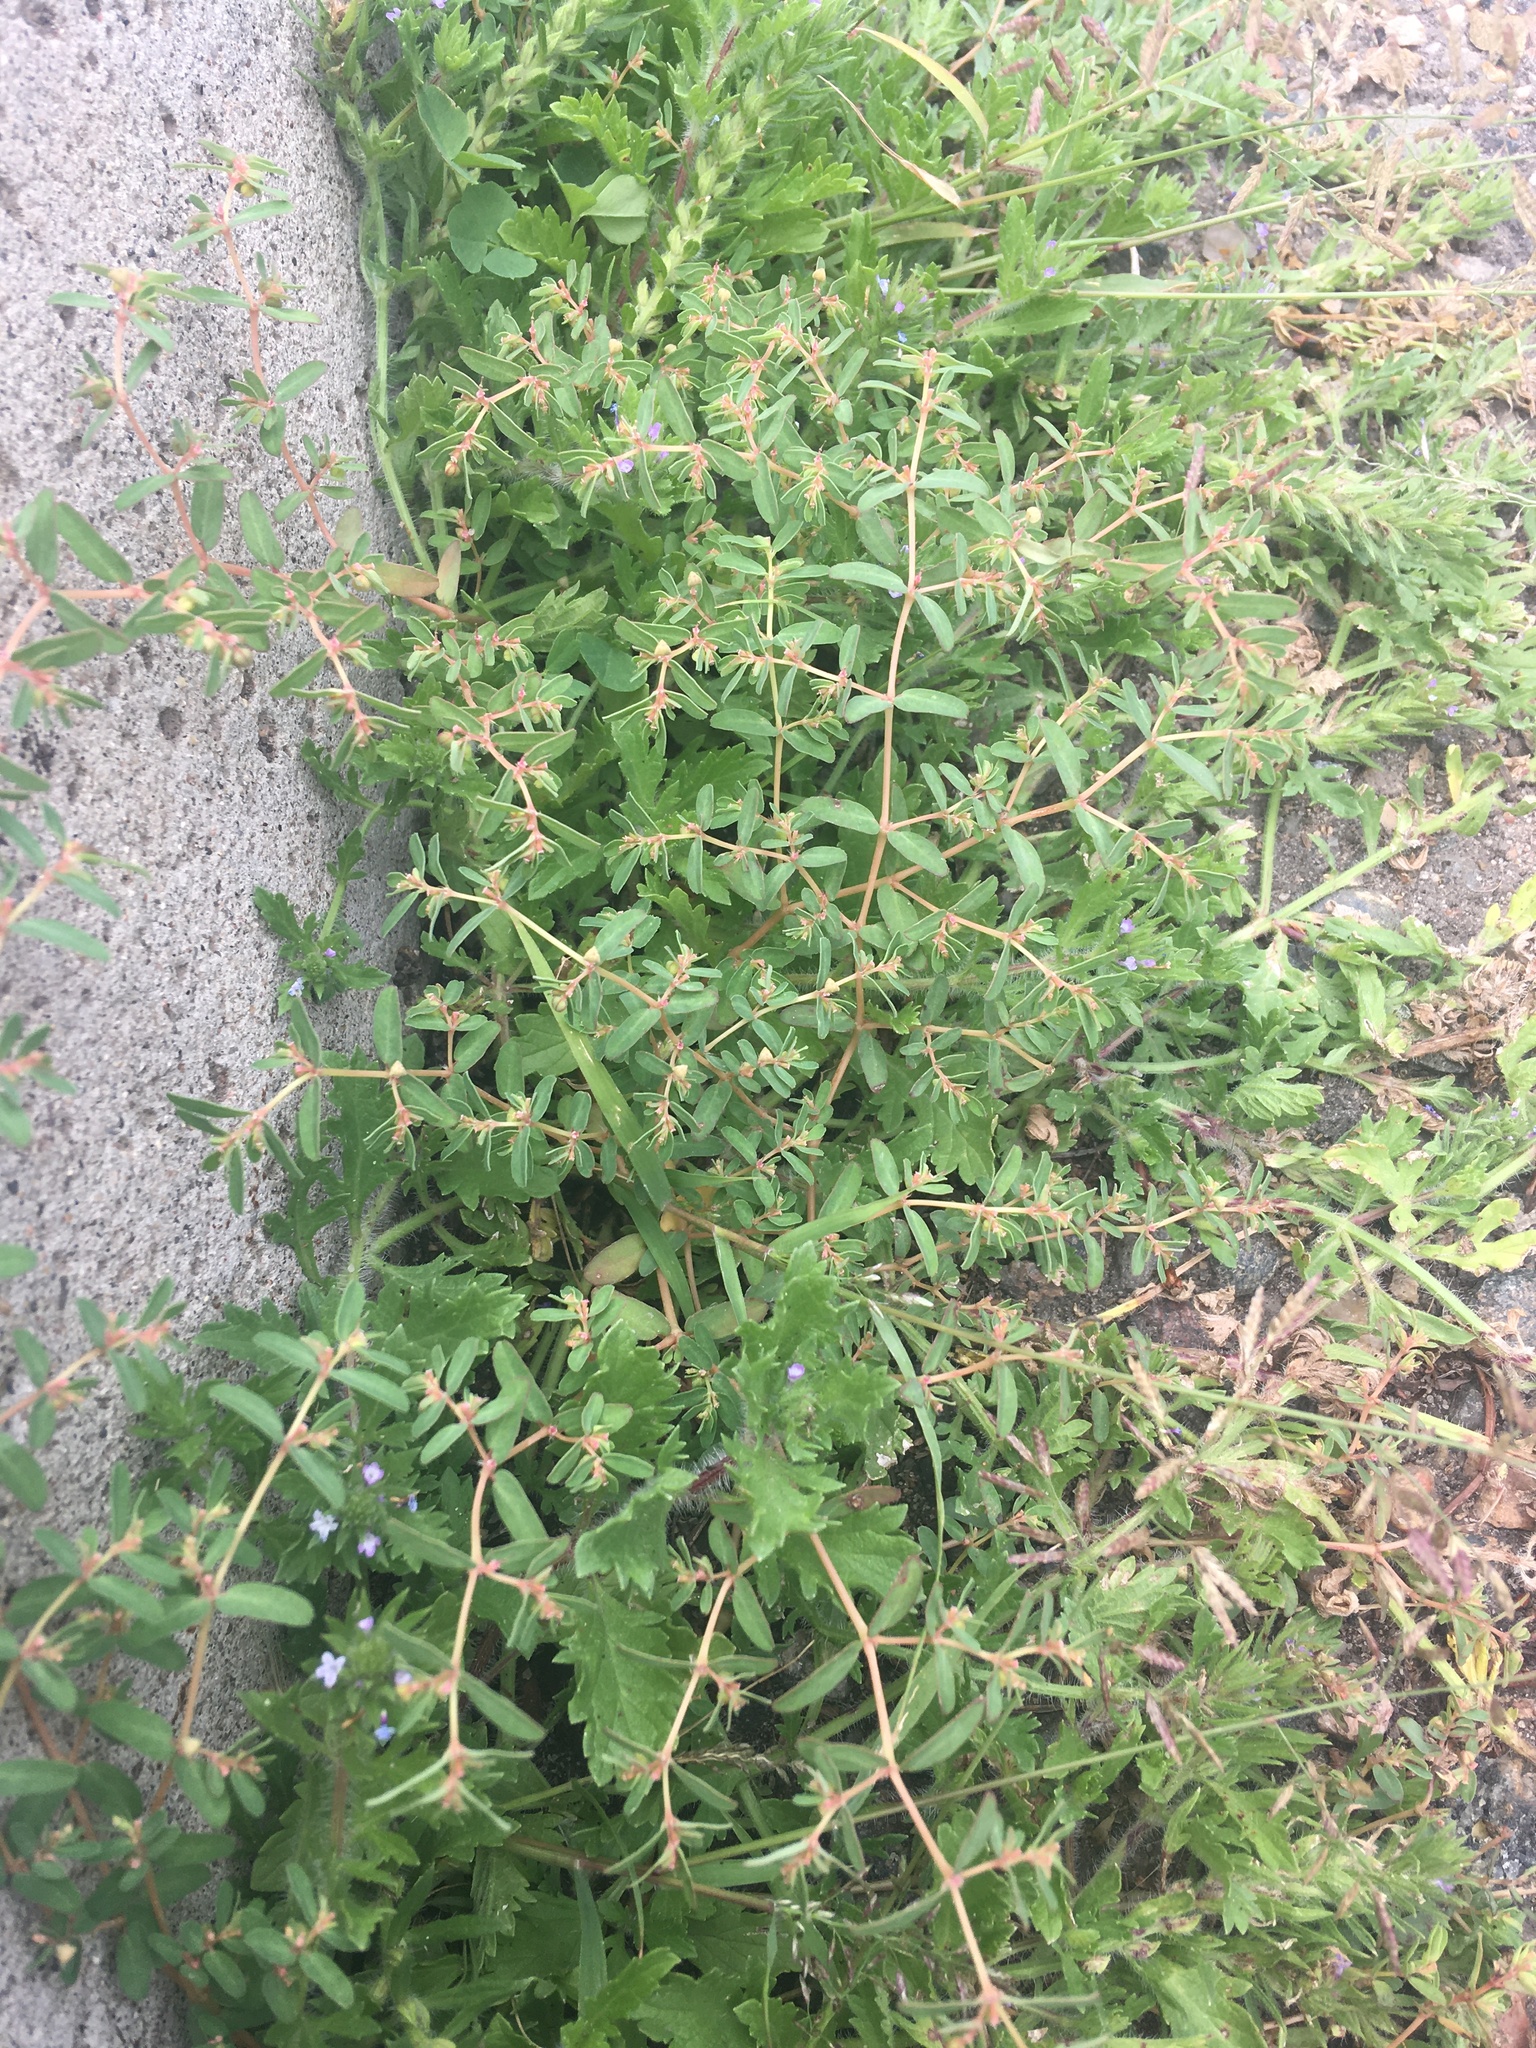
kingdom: Plantae
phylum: Tracheophyta
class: Magnoliopsida
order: Malpighiales
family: Euphorbiaceae
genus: Euphorbia
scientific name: Euphorbia glyptosperma
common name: Corrugate-seeded spurge
